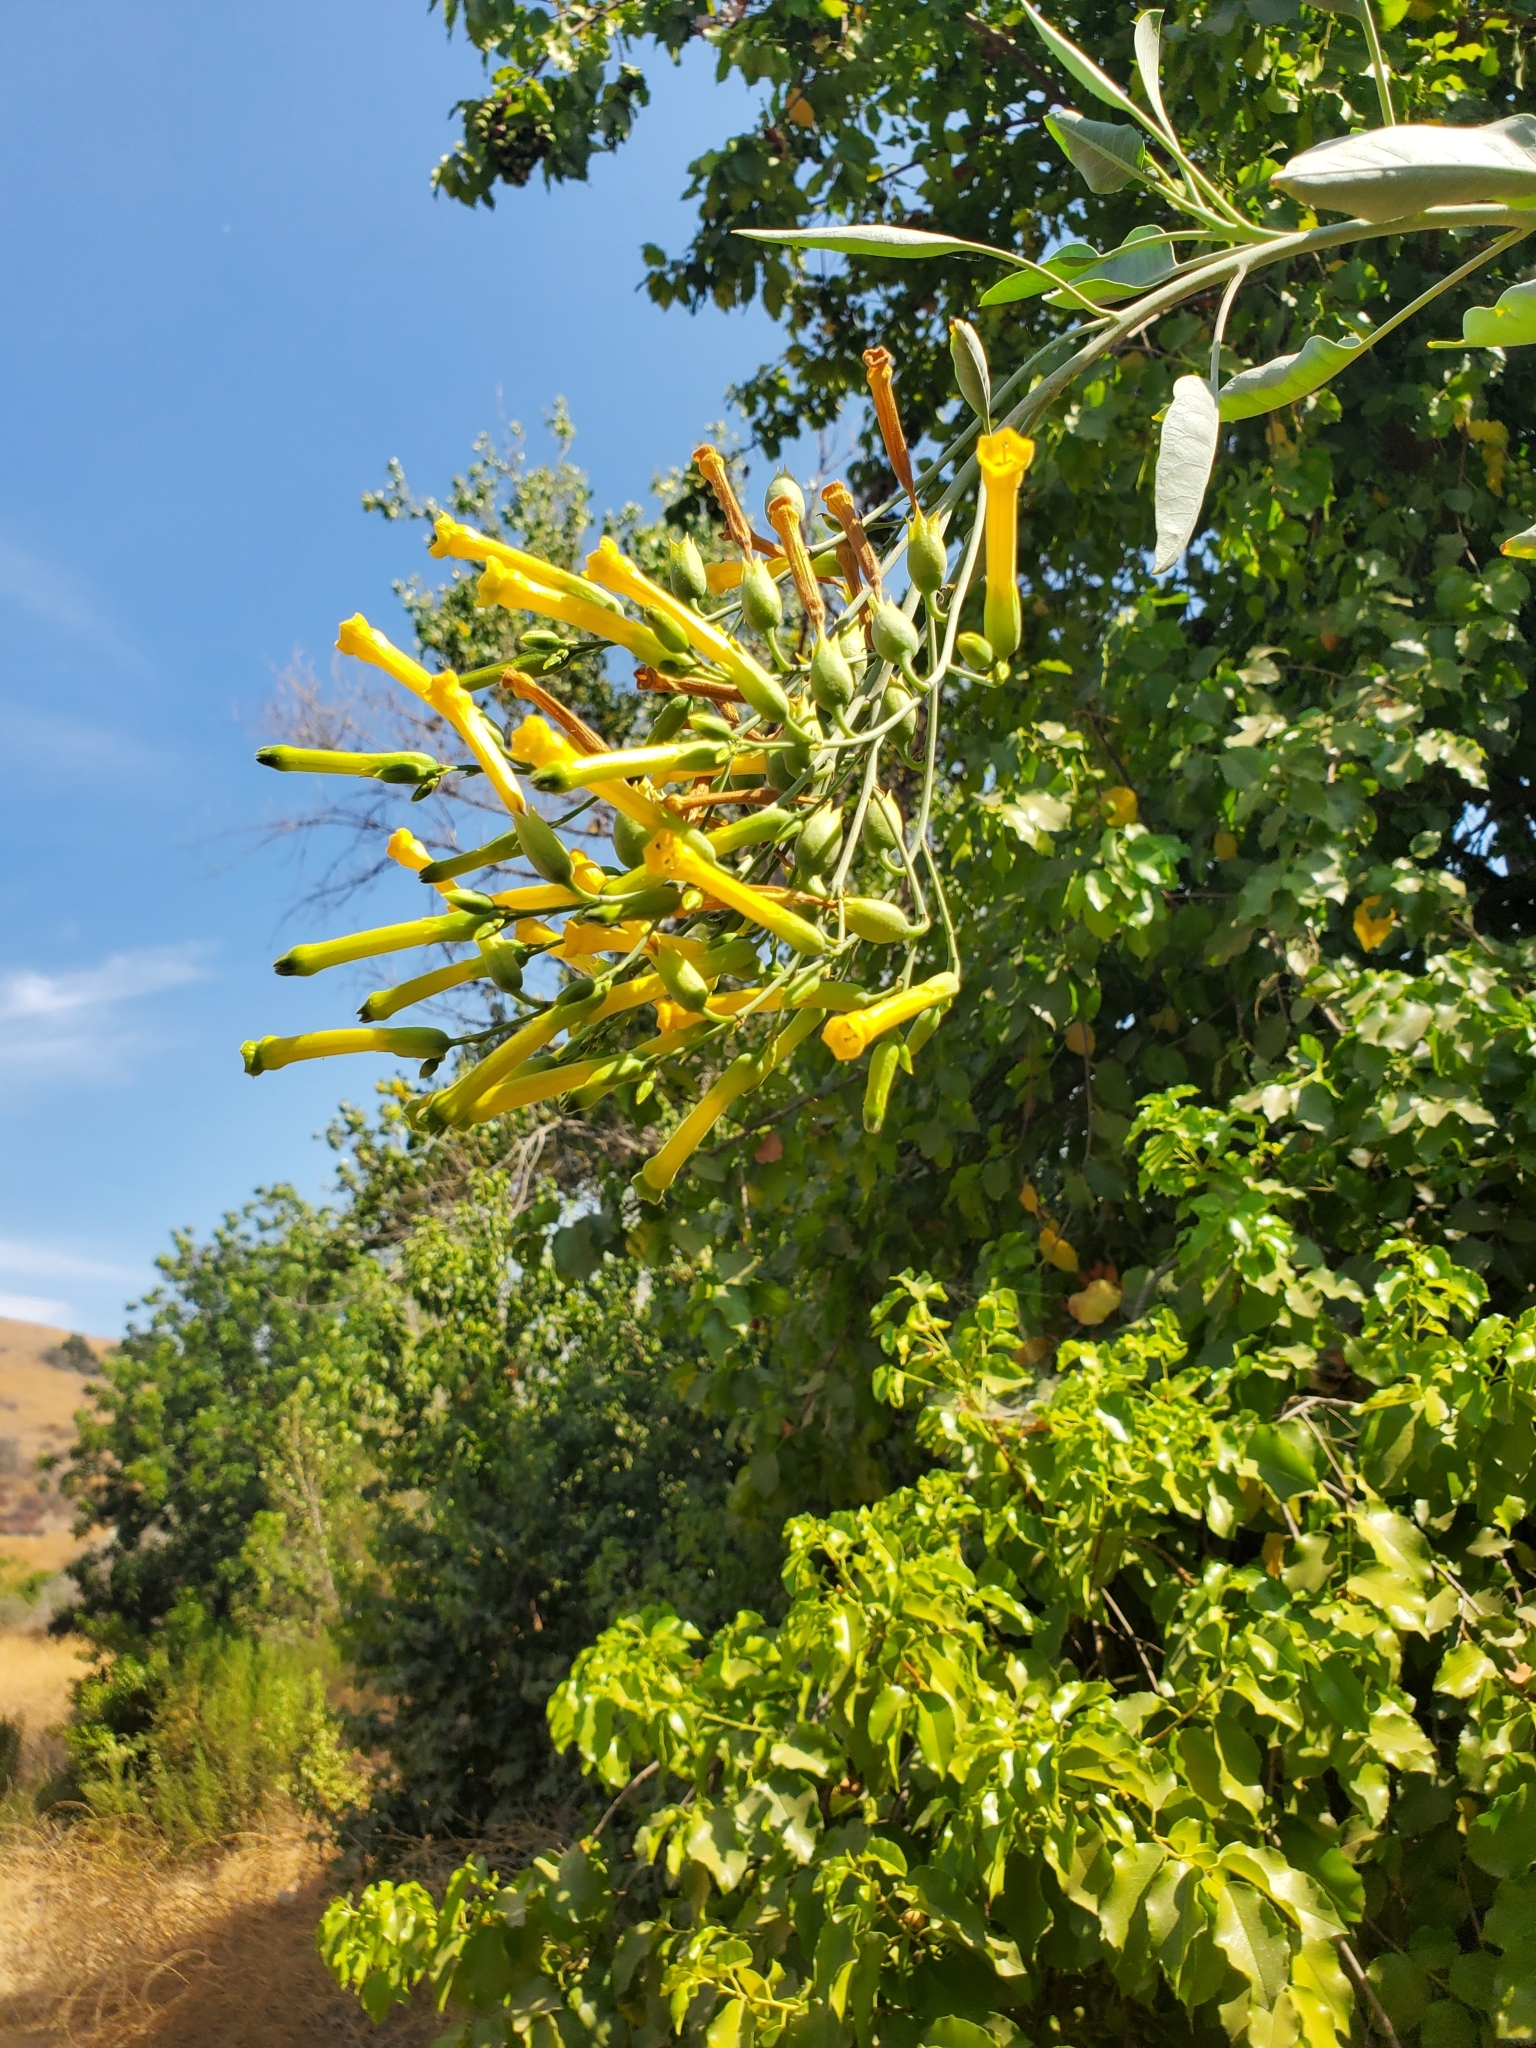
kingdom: Plantae
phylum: Tracheophyta
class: Magnoliopsida
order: Solanales
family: Solanaceae
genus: Nicotiana
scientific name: Nicotiana glauca
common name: Tree tobacco
